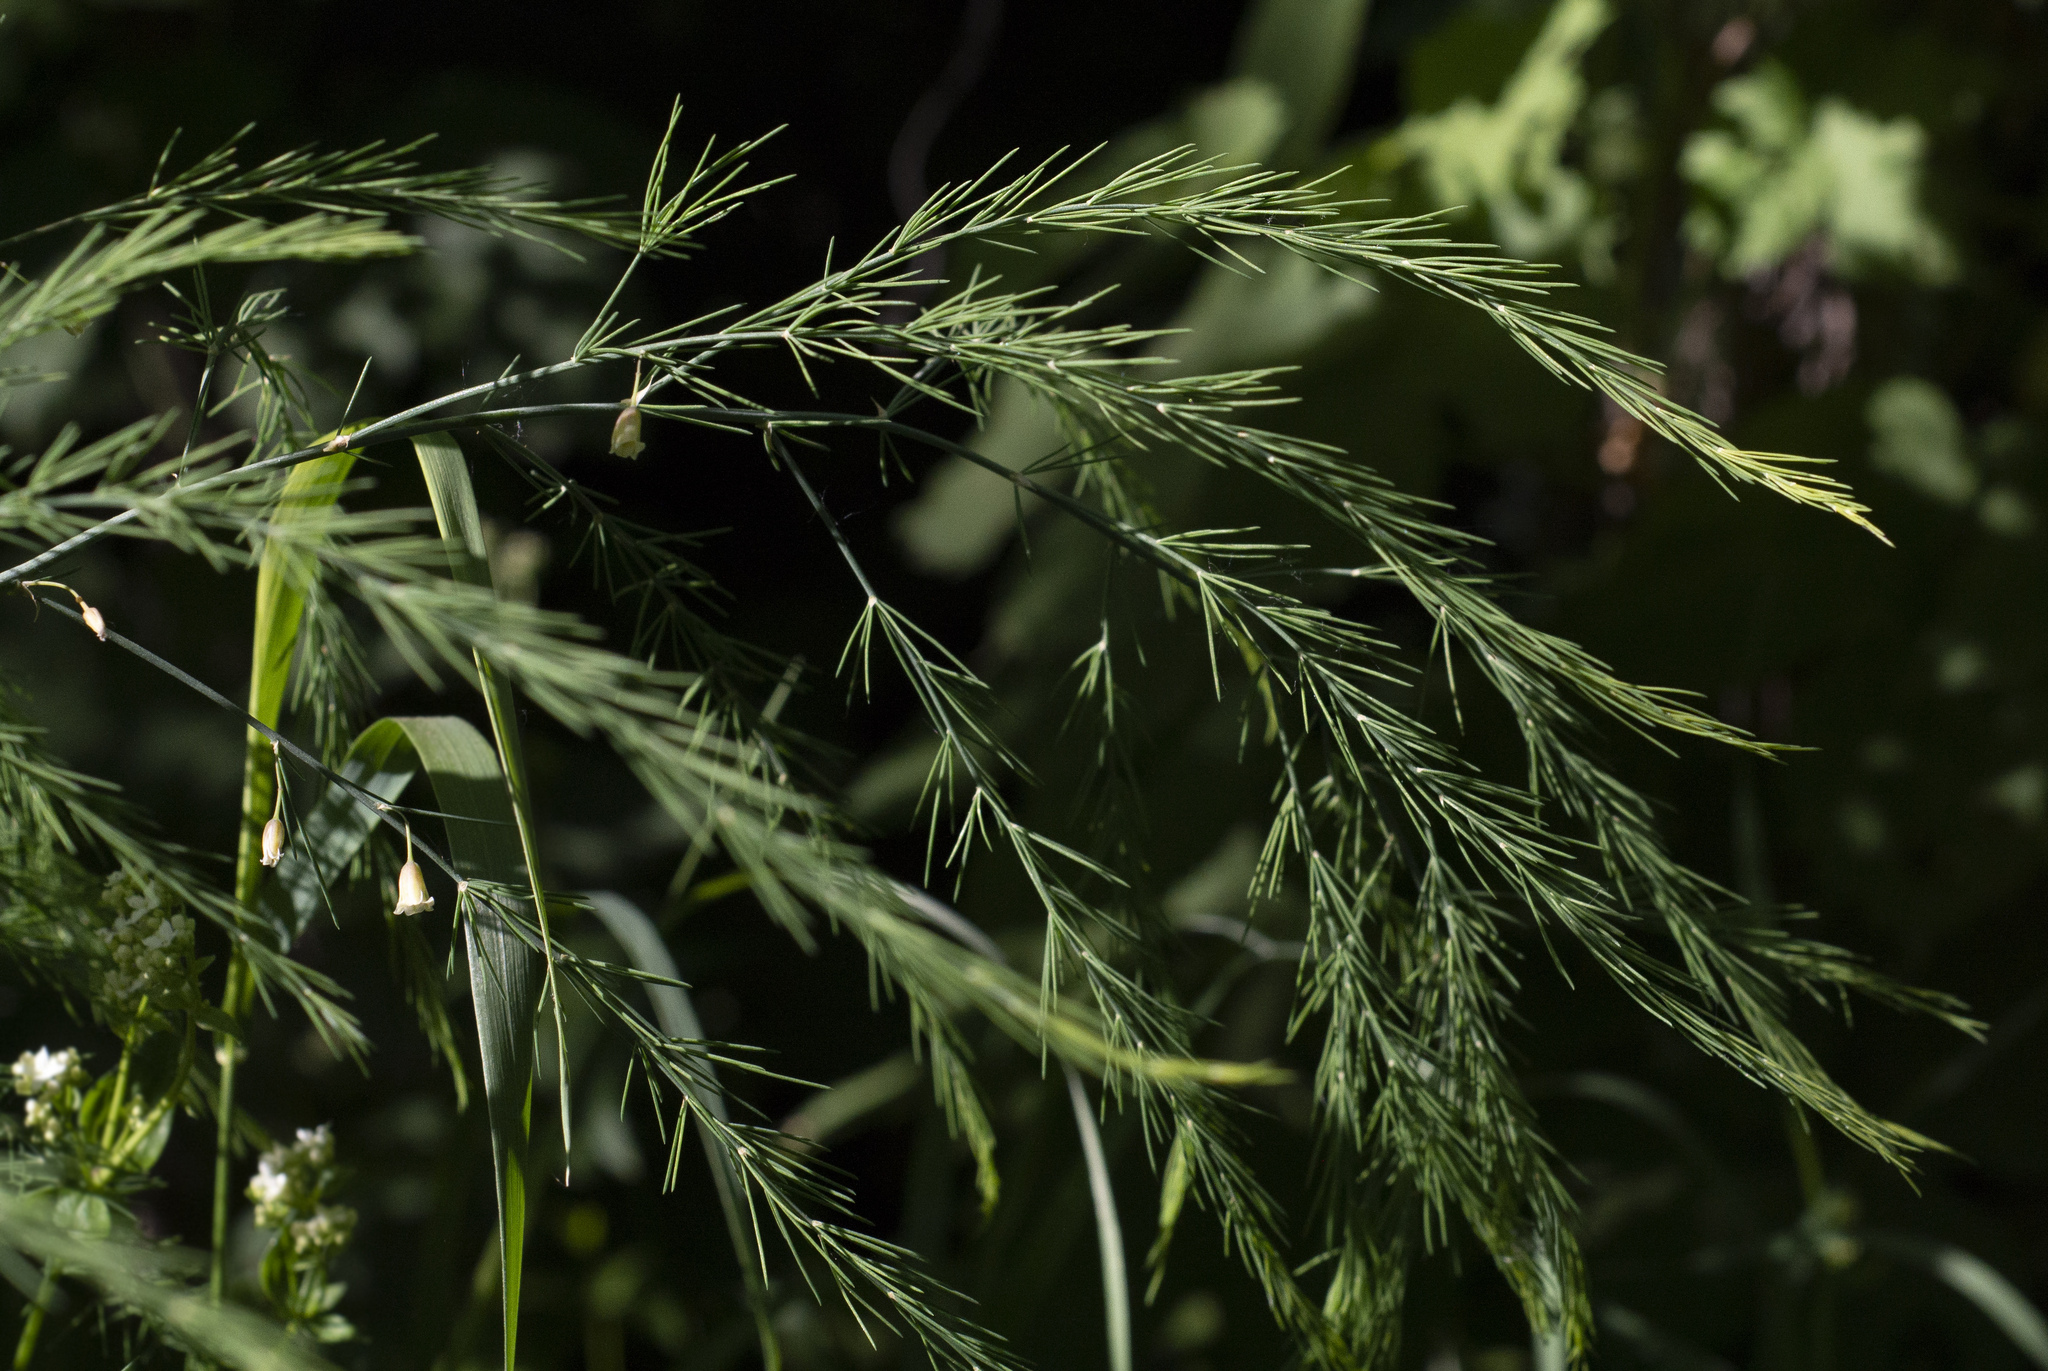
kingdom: Plantae
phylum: Tracheophyta
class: Liliopsida
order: Asparagales
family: Asparagaceae
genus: Asparagus
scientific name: Asparagus officinalis
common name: Garden asparagus
